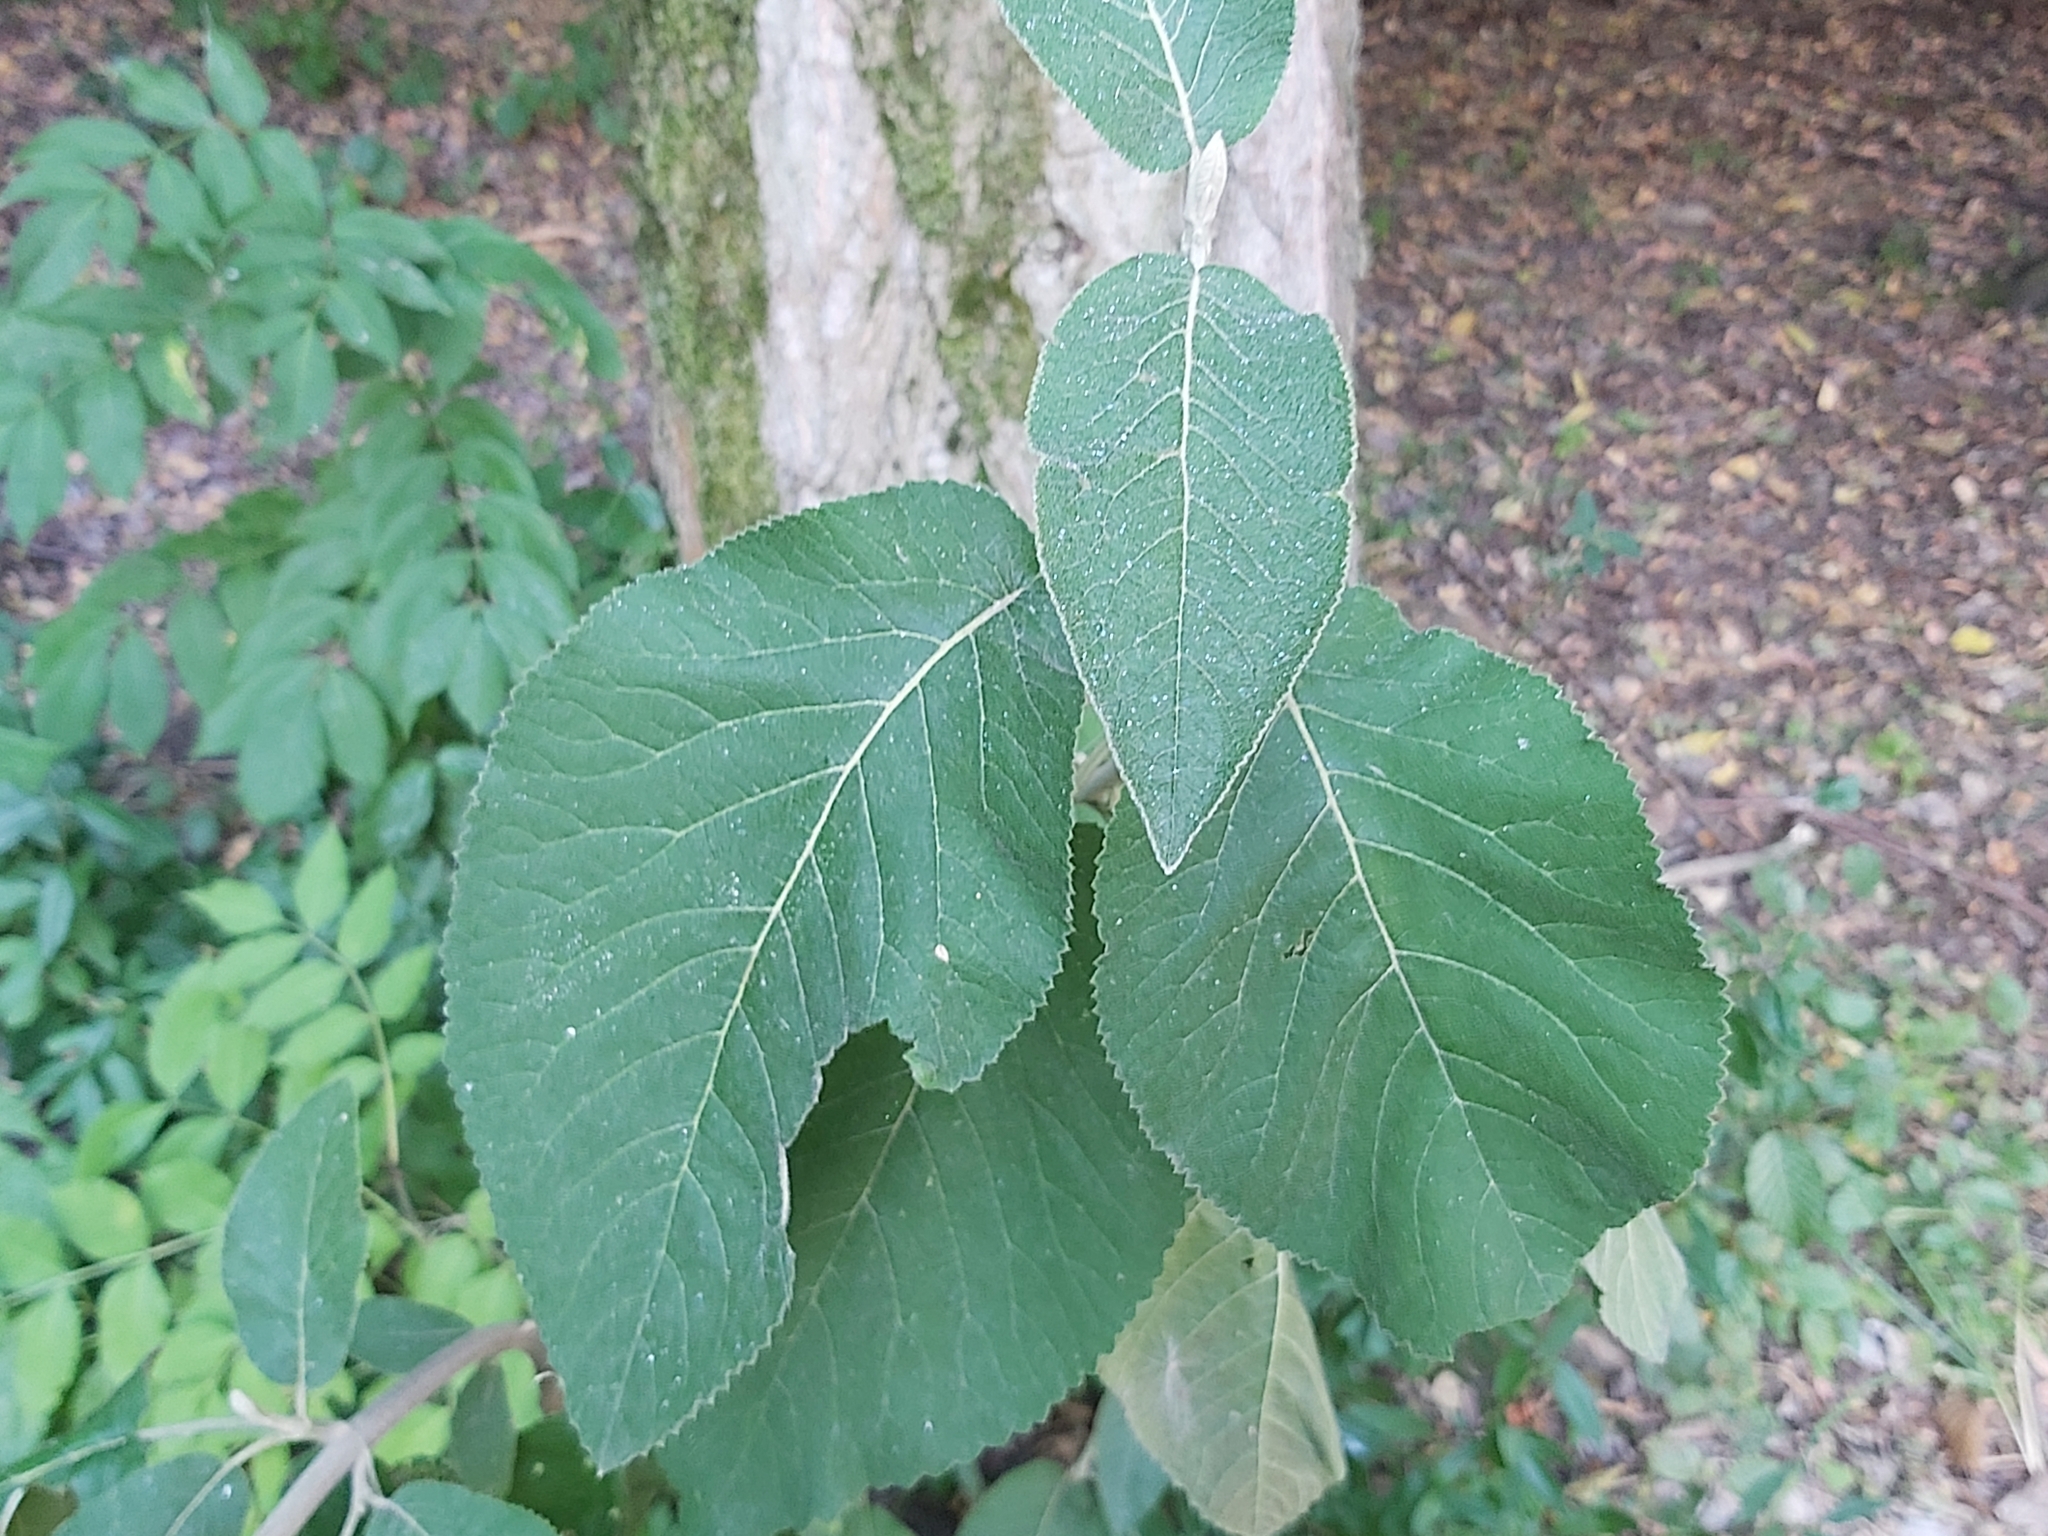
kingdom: Plantae
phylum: Tracheophyta
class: Magnoliopsida
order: Dipsacales
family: Viburnaceae
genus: Viburnum
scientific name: Viburnum lantana
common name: Wayfaring tree
